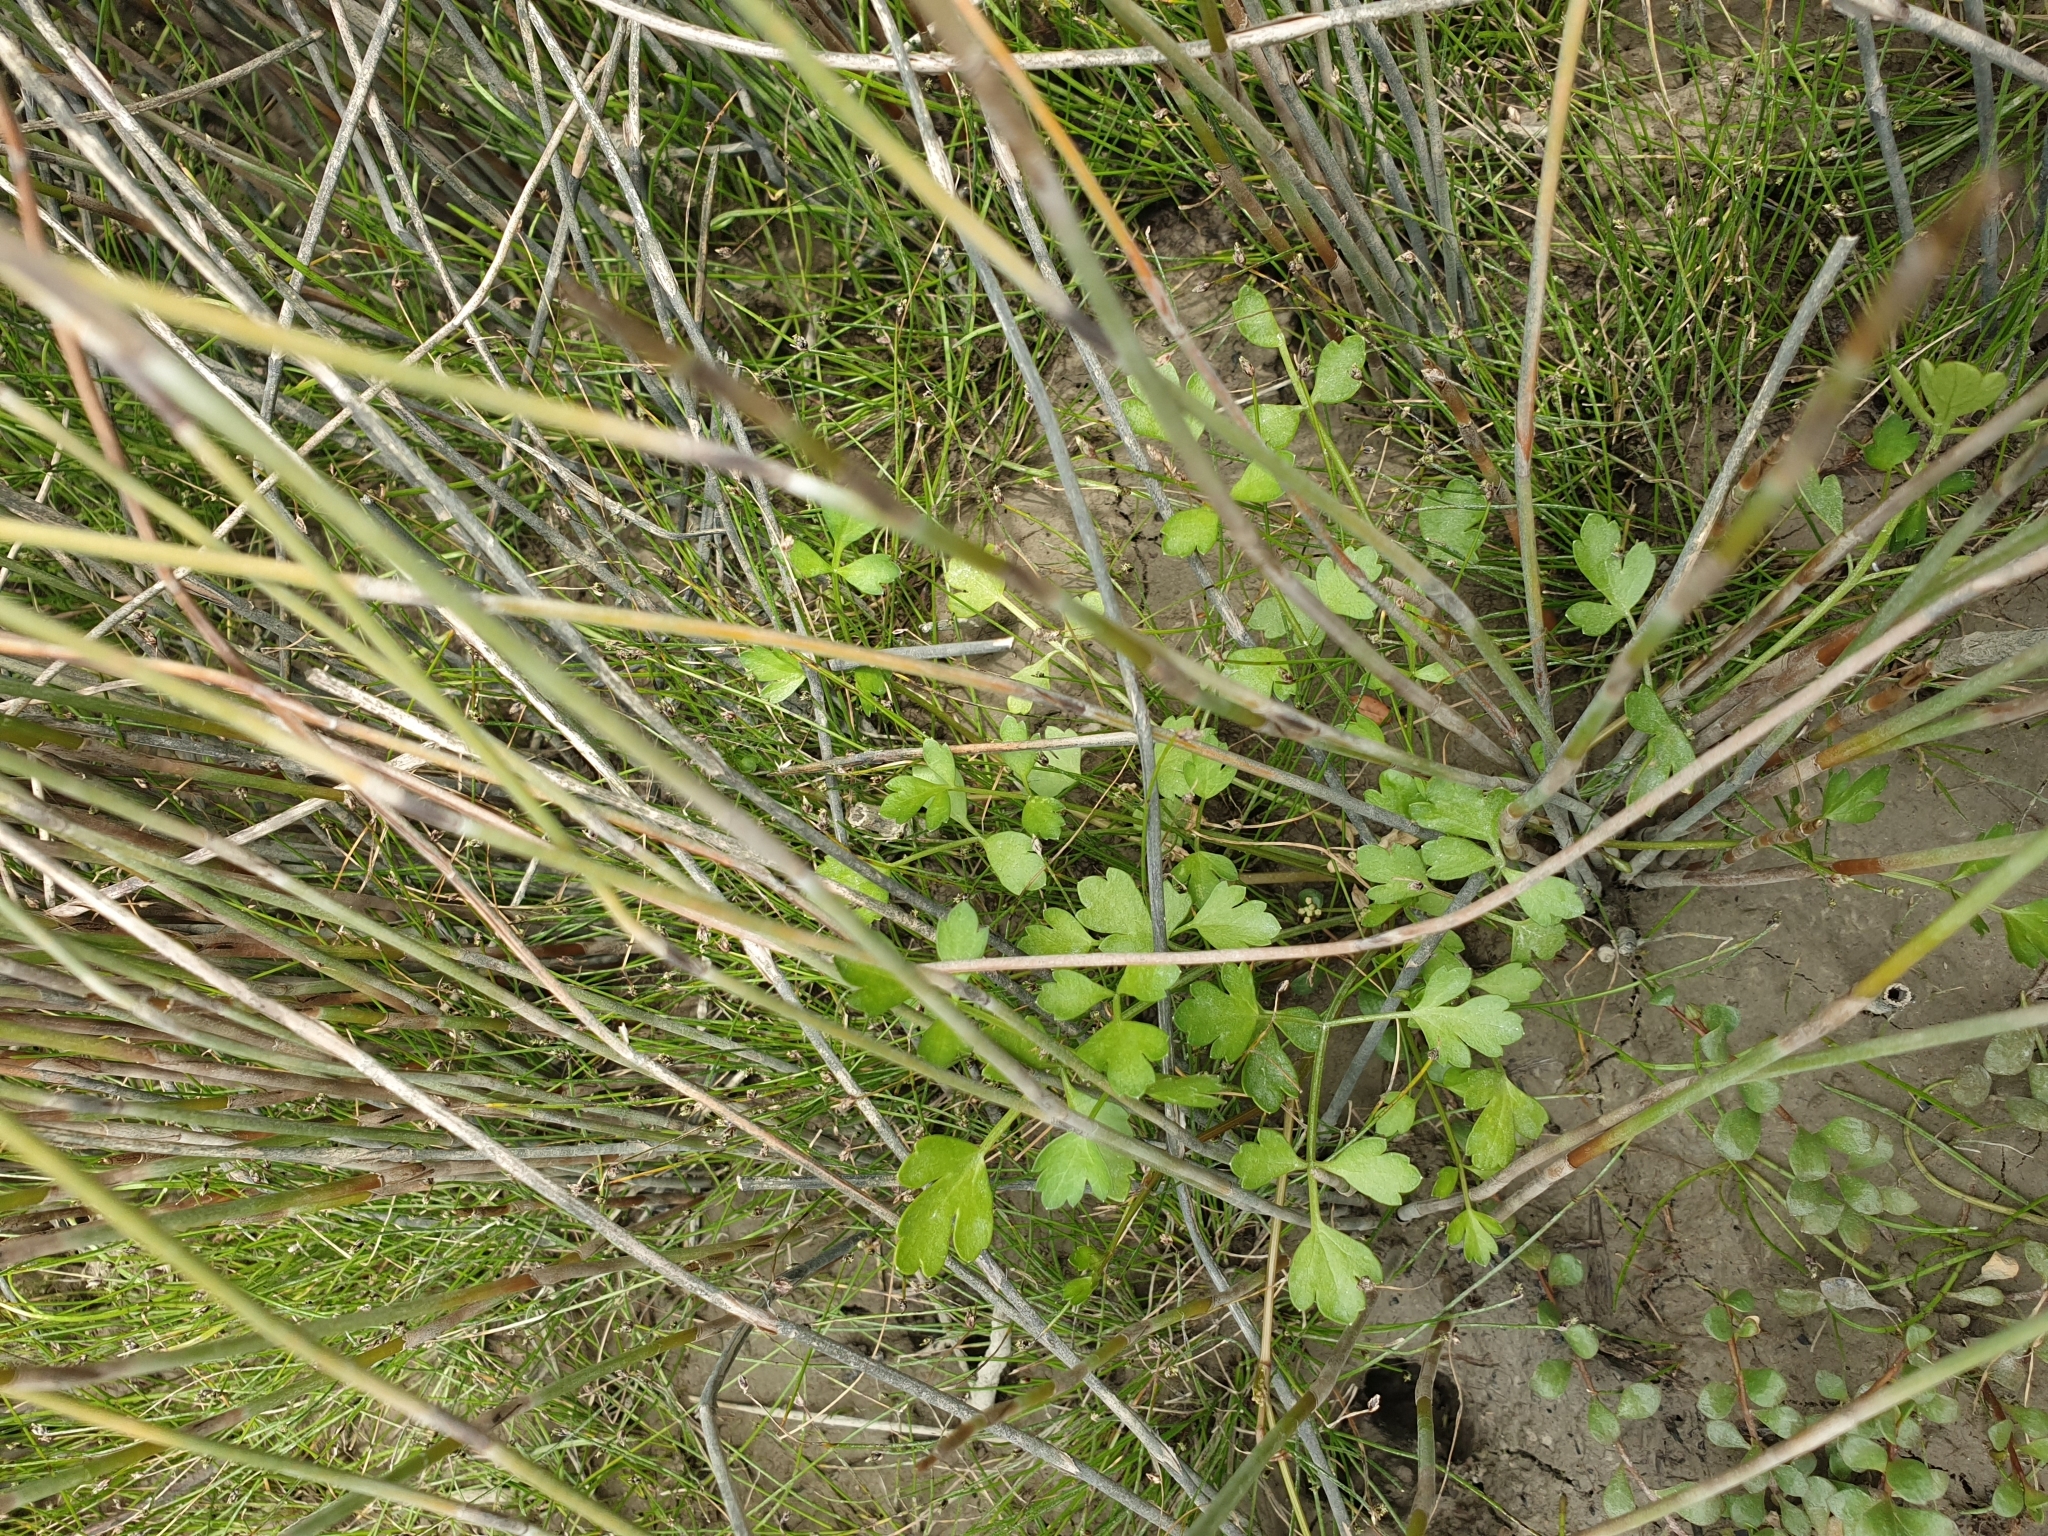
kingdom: Plantae
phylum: Tracheophyta
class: Magnoliopsida
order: Apiales
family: Apiaceae
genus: Apium
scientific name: Apium prostratum
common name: Prostrate marshwort
